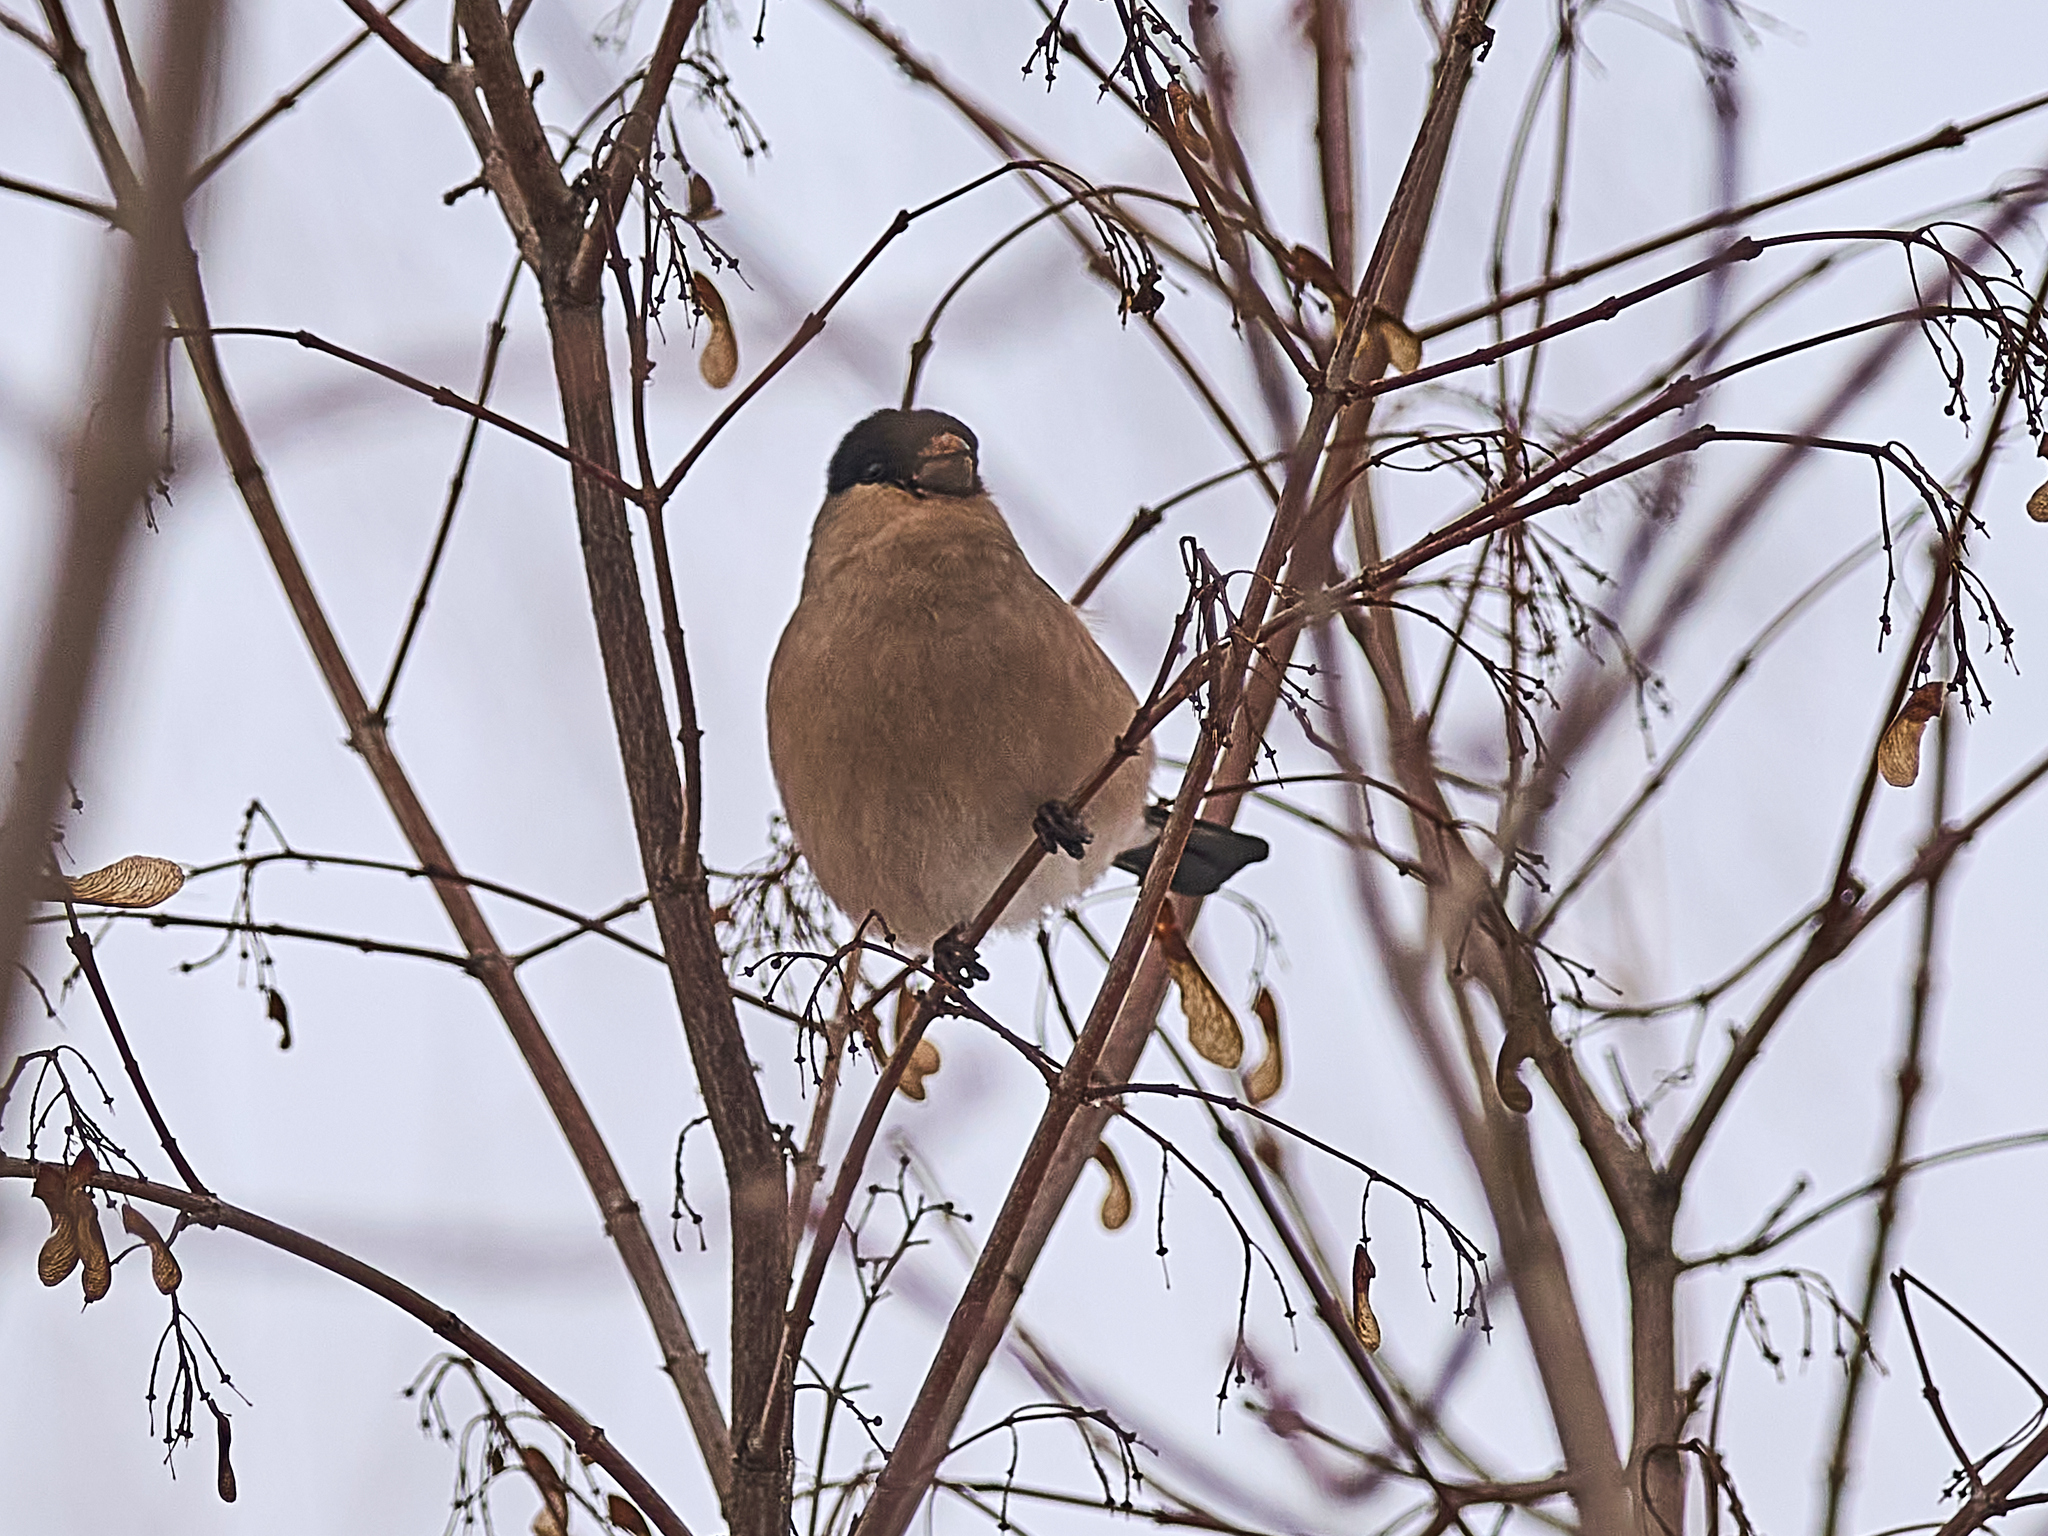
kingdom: Animalia
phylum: Chordata
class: Aves
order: Passeriformes
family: Fringillidae
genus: Pyrrhula
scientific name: Pyrrhula pyrrhula
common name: Eurasian bullfinch
